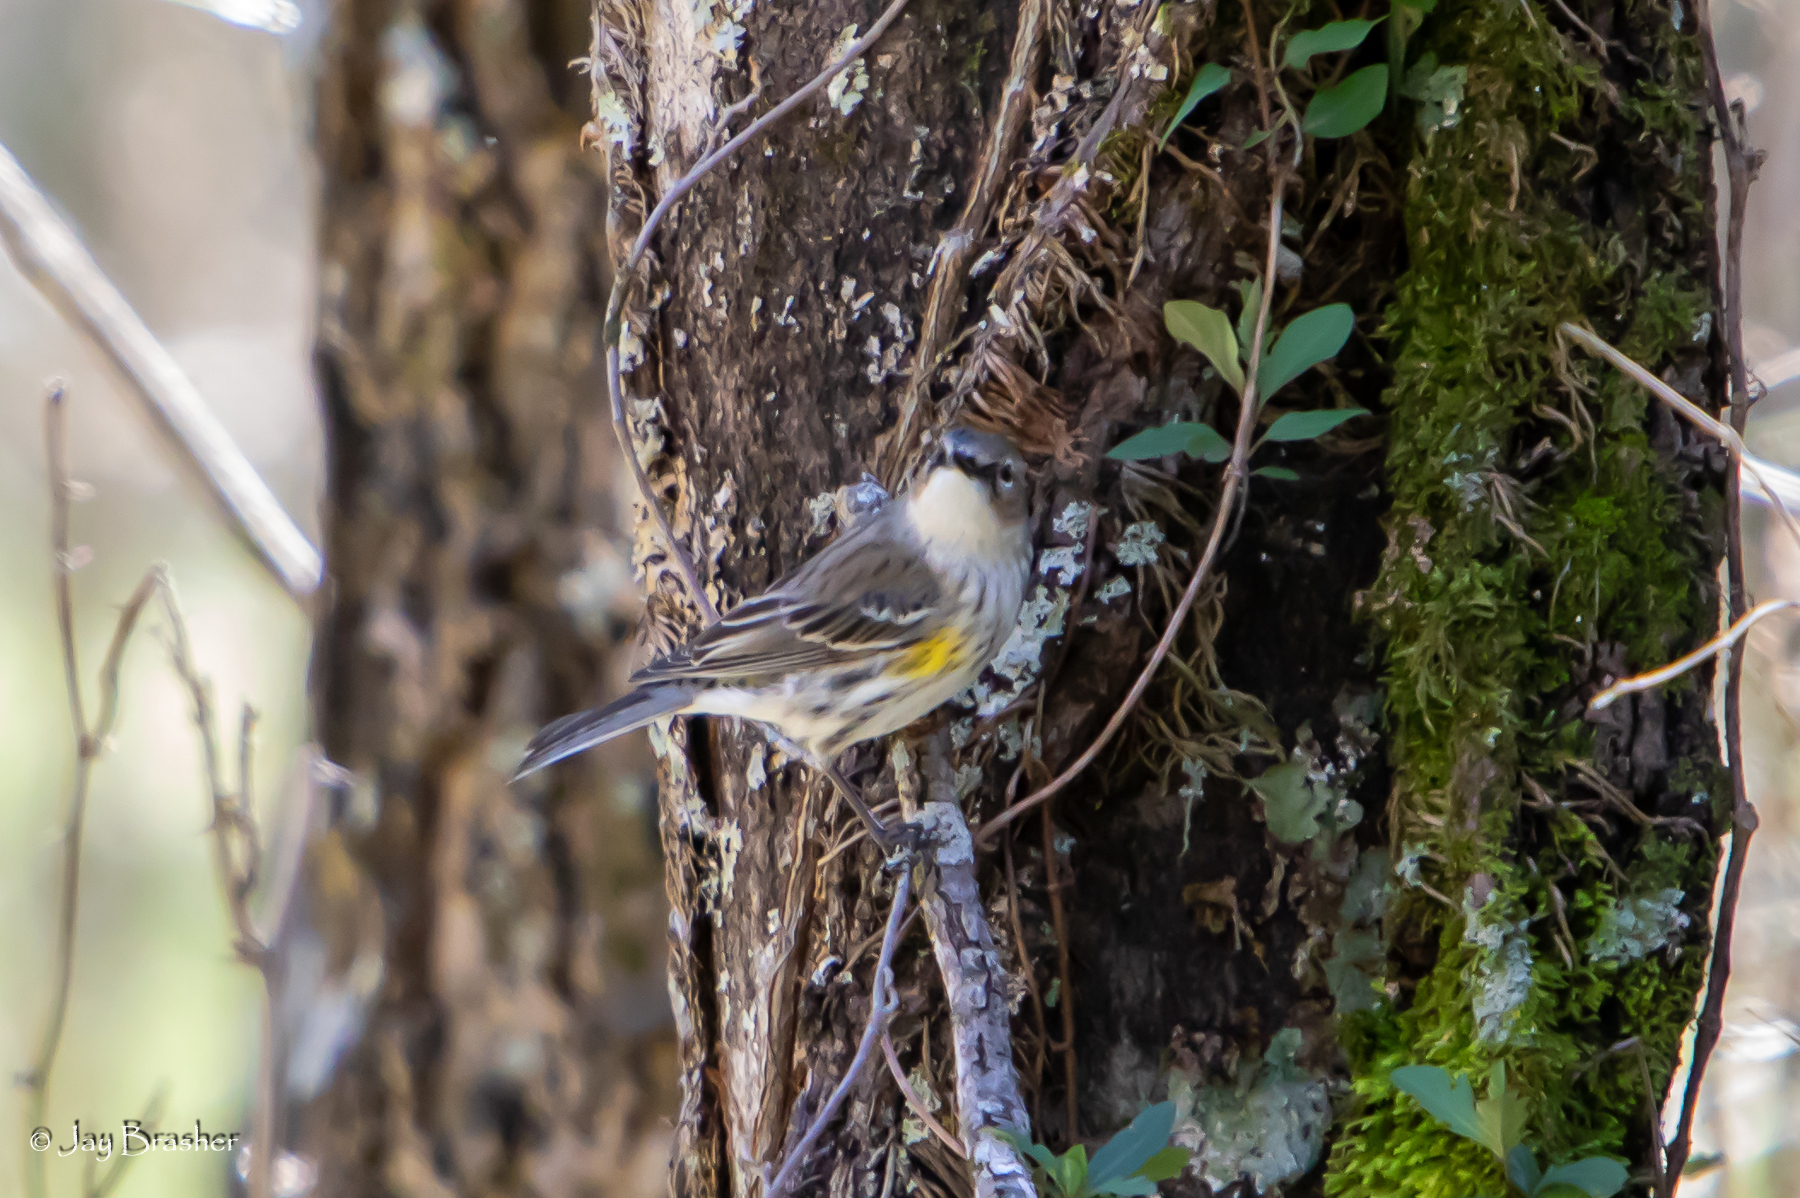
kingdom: Animalia
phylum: Chordata
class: Aves
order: Passeriformes
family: Parulidae
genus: Setophaga
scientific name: Setophaga coronata
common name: Myrtle warbler
